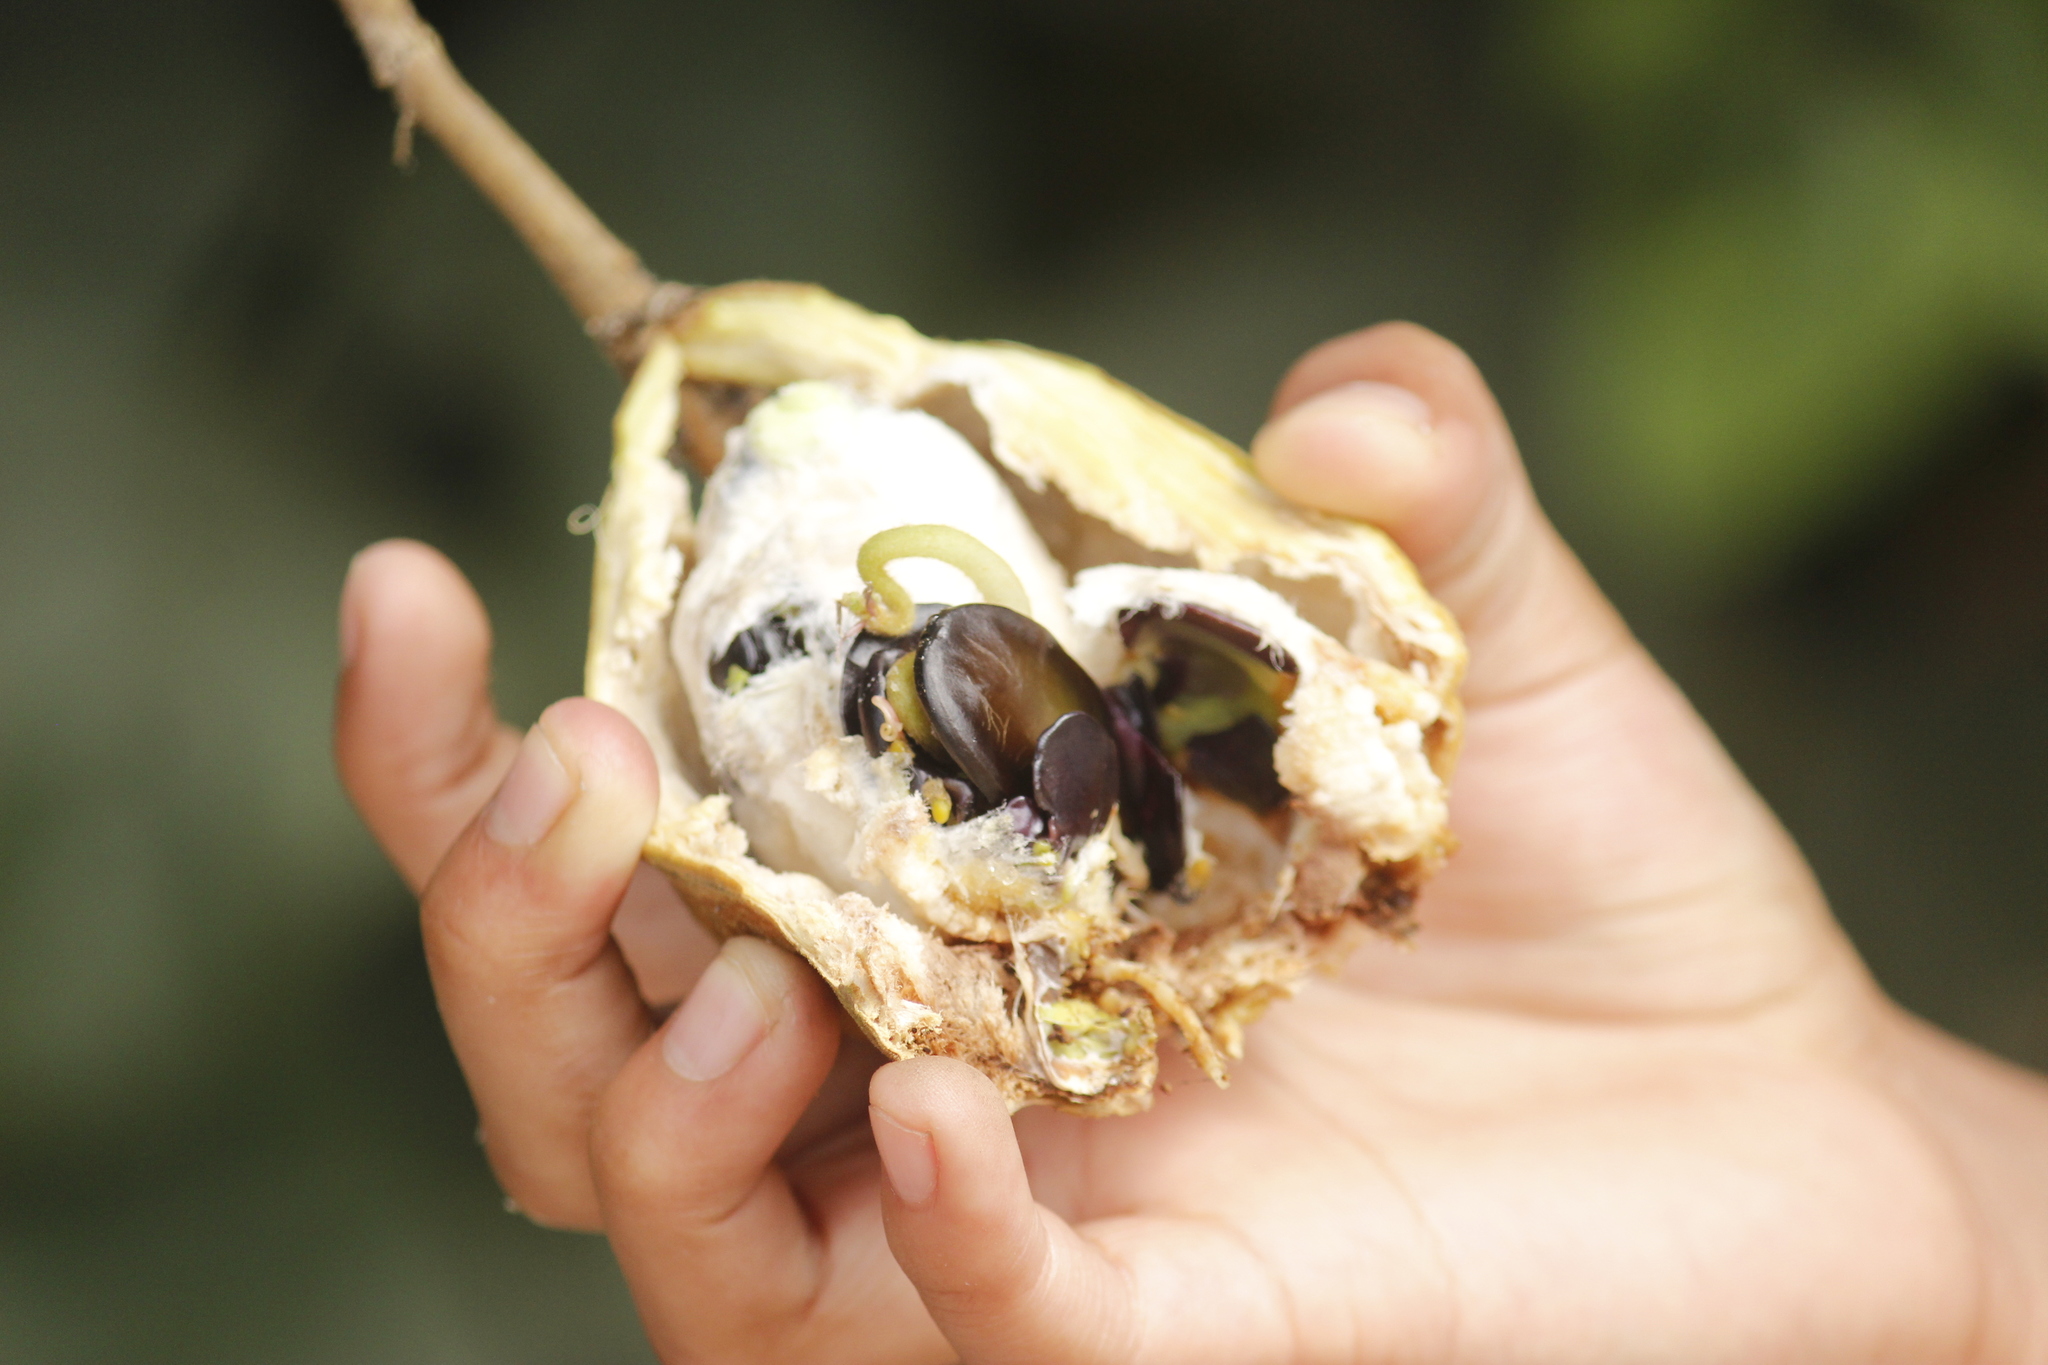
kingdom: Plantae
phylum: Tracheophyta
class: Magnoliopsida
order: Fabales
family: Fabaceae
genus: Inga
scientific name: Inga feuillei
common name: Ice cream bean
